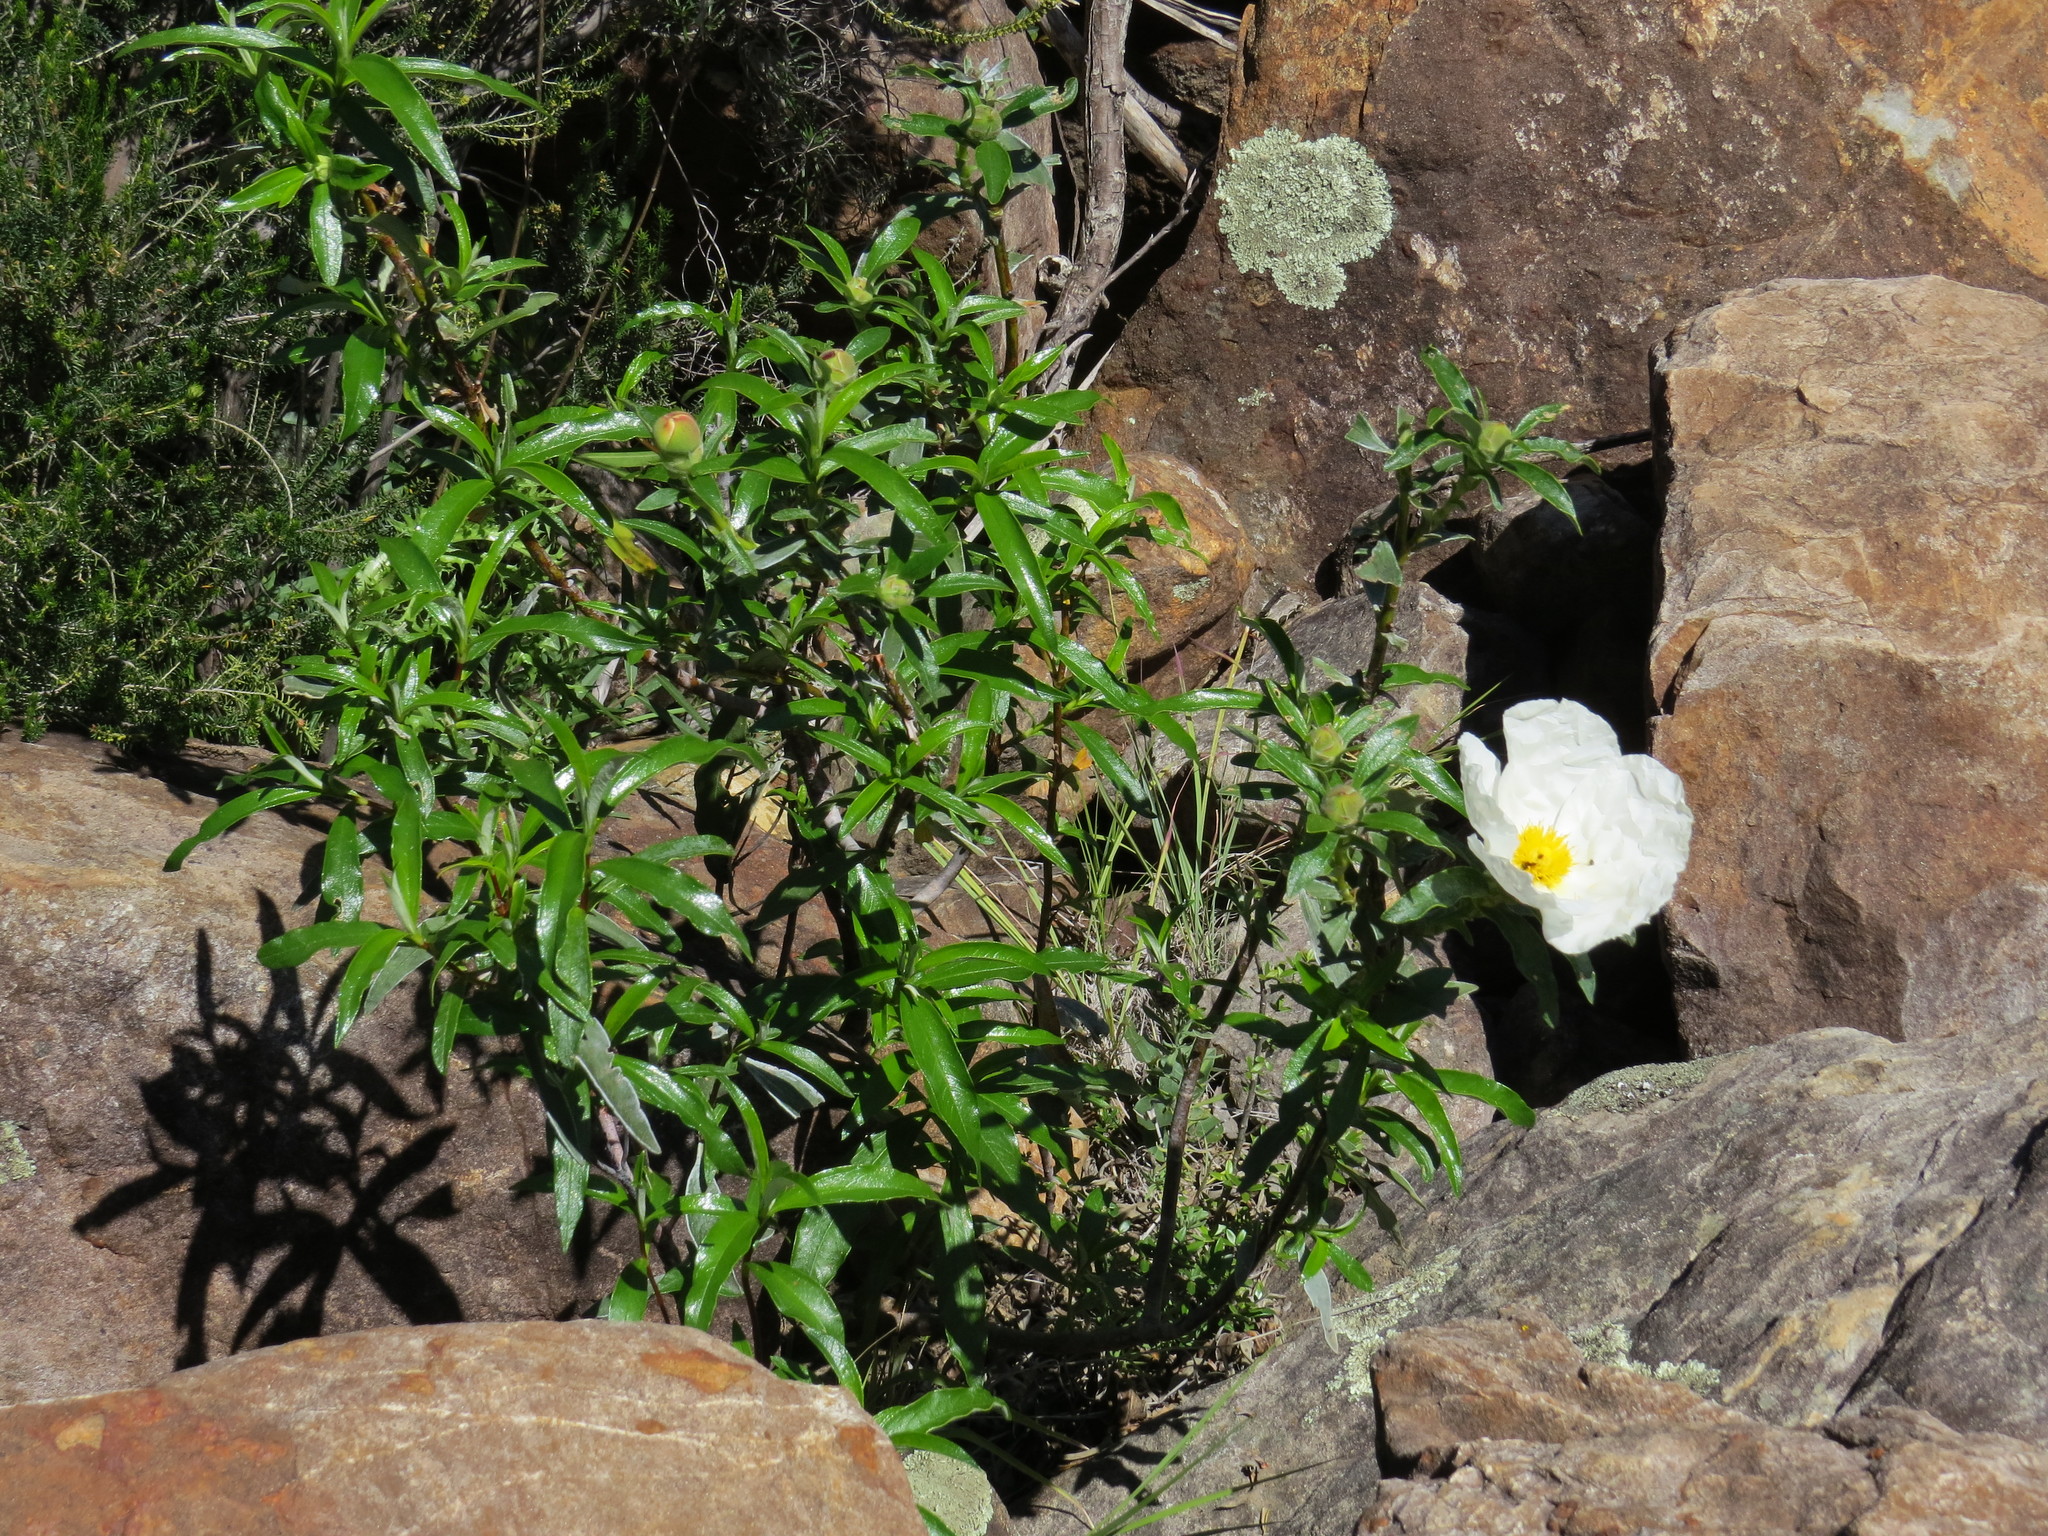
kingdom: Plantae
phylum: Tracheophyta
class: Magnoliopsida
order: Malvales
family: Cistaceae
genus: Cistus
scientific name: Cistus ladanifer
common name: Common gum cistus
